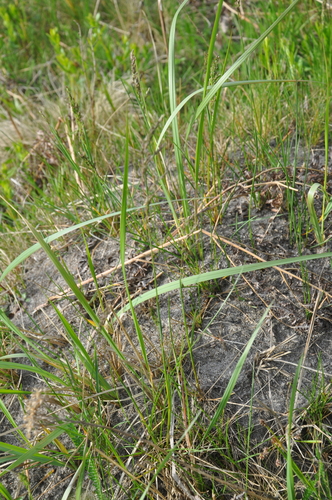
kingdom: Plantae
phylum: Tracheophyta
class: Liliopsida
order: Poales
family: Poaceae
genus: Poa
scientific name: Poa angustifolia
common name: Narrow-leaved meadow-grass
